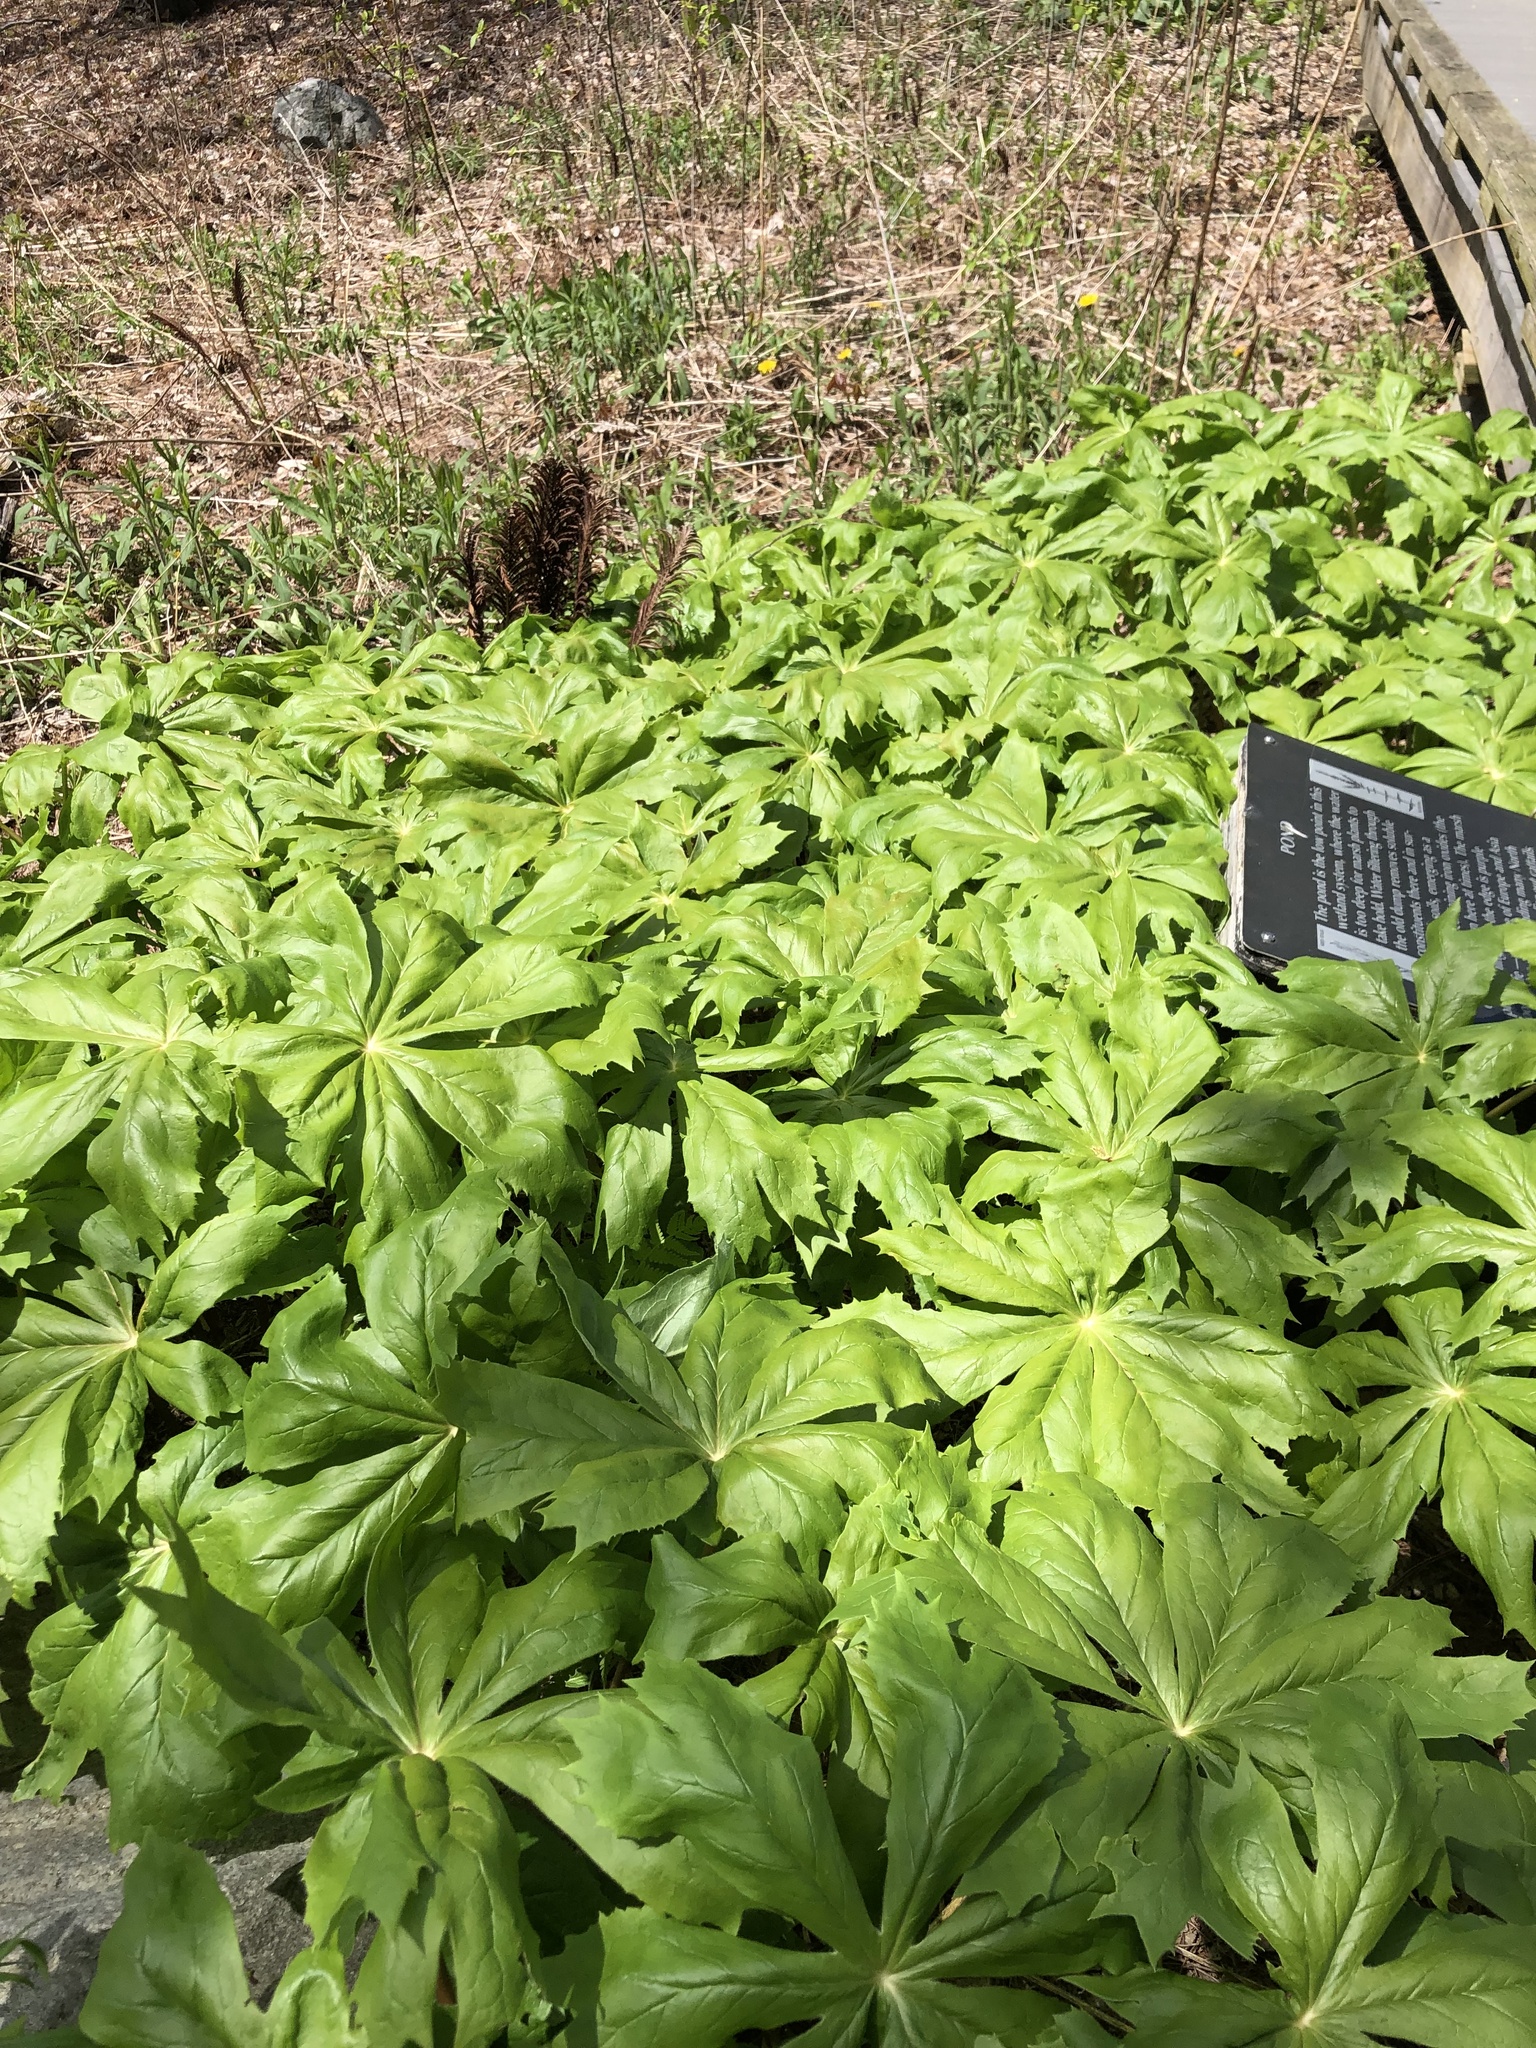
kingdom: Plantae
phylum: Tracheophyta
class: Magnoliopsida
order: Ranunculales
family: Berberidaceae
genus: Podophyllum
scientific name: Podophyllum peltatum
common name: Wild mandrake
